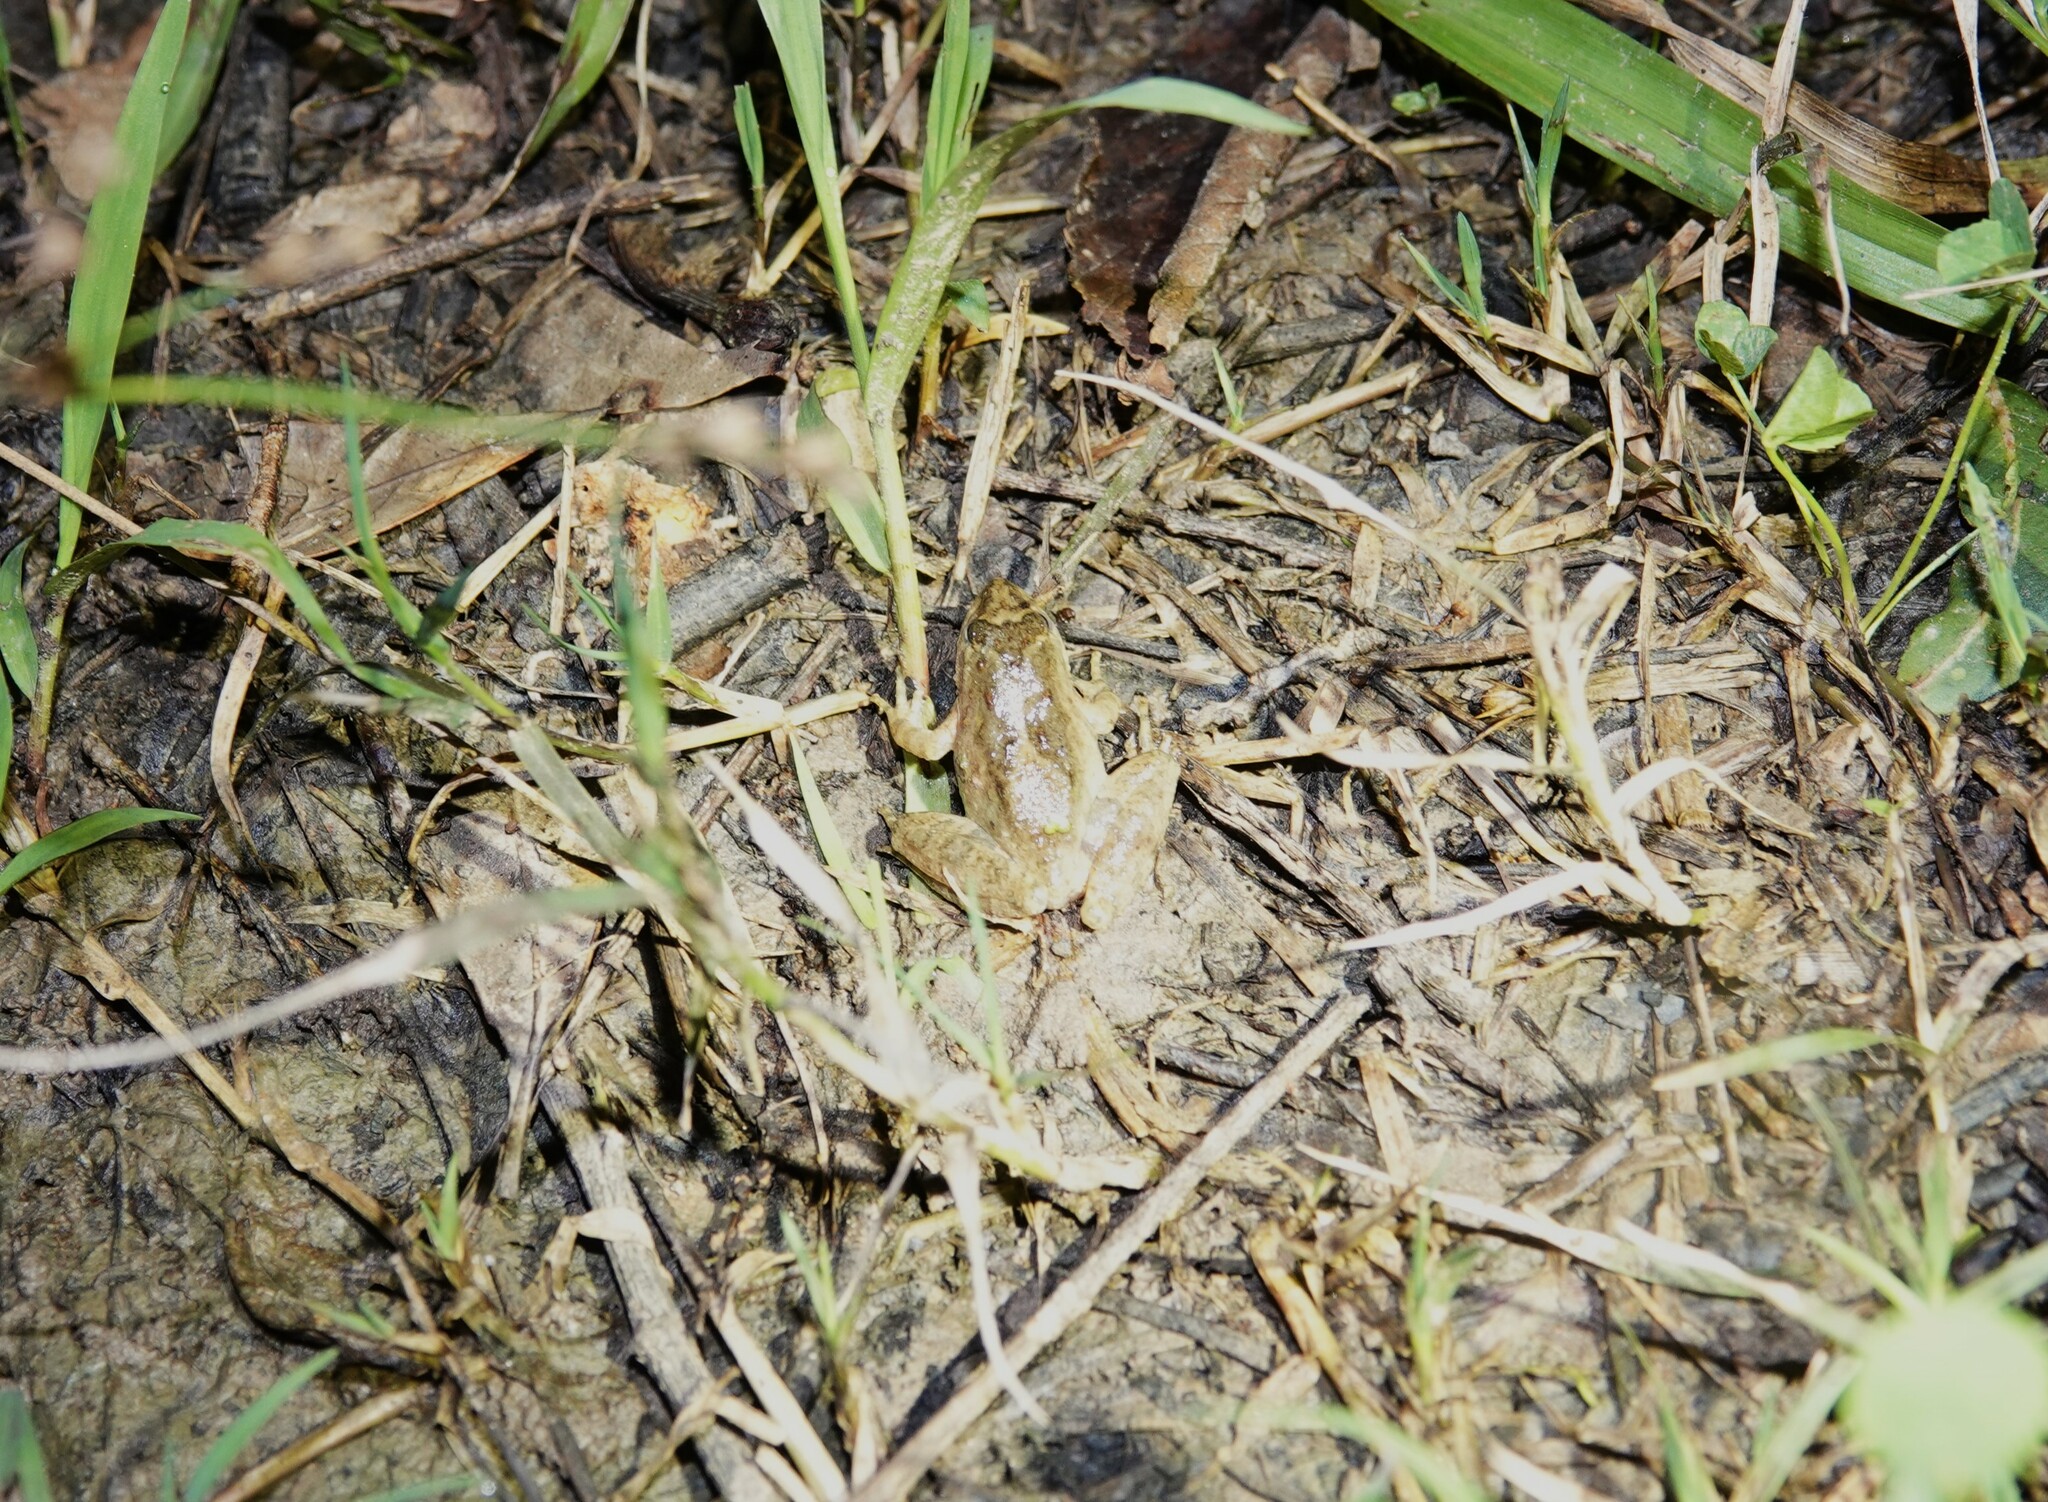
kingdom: Animalia
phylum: Chordata
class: Amphibia
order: Anura
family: Hylidae
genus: Acris
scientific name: Acris blanchardi
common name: Blanchard's cricket frog
